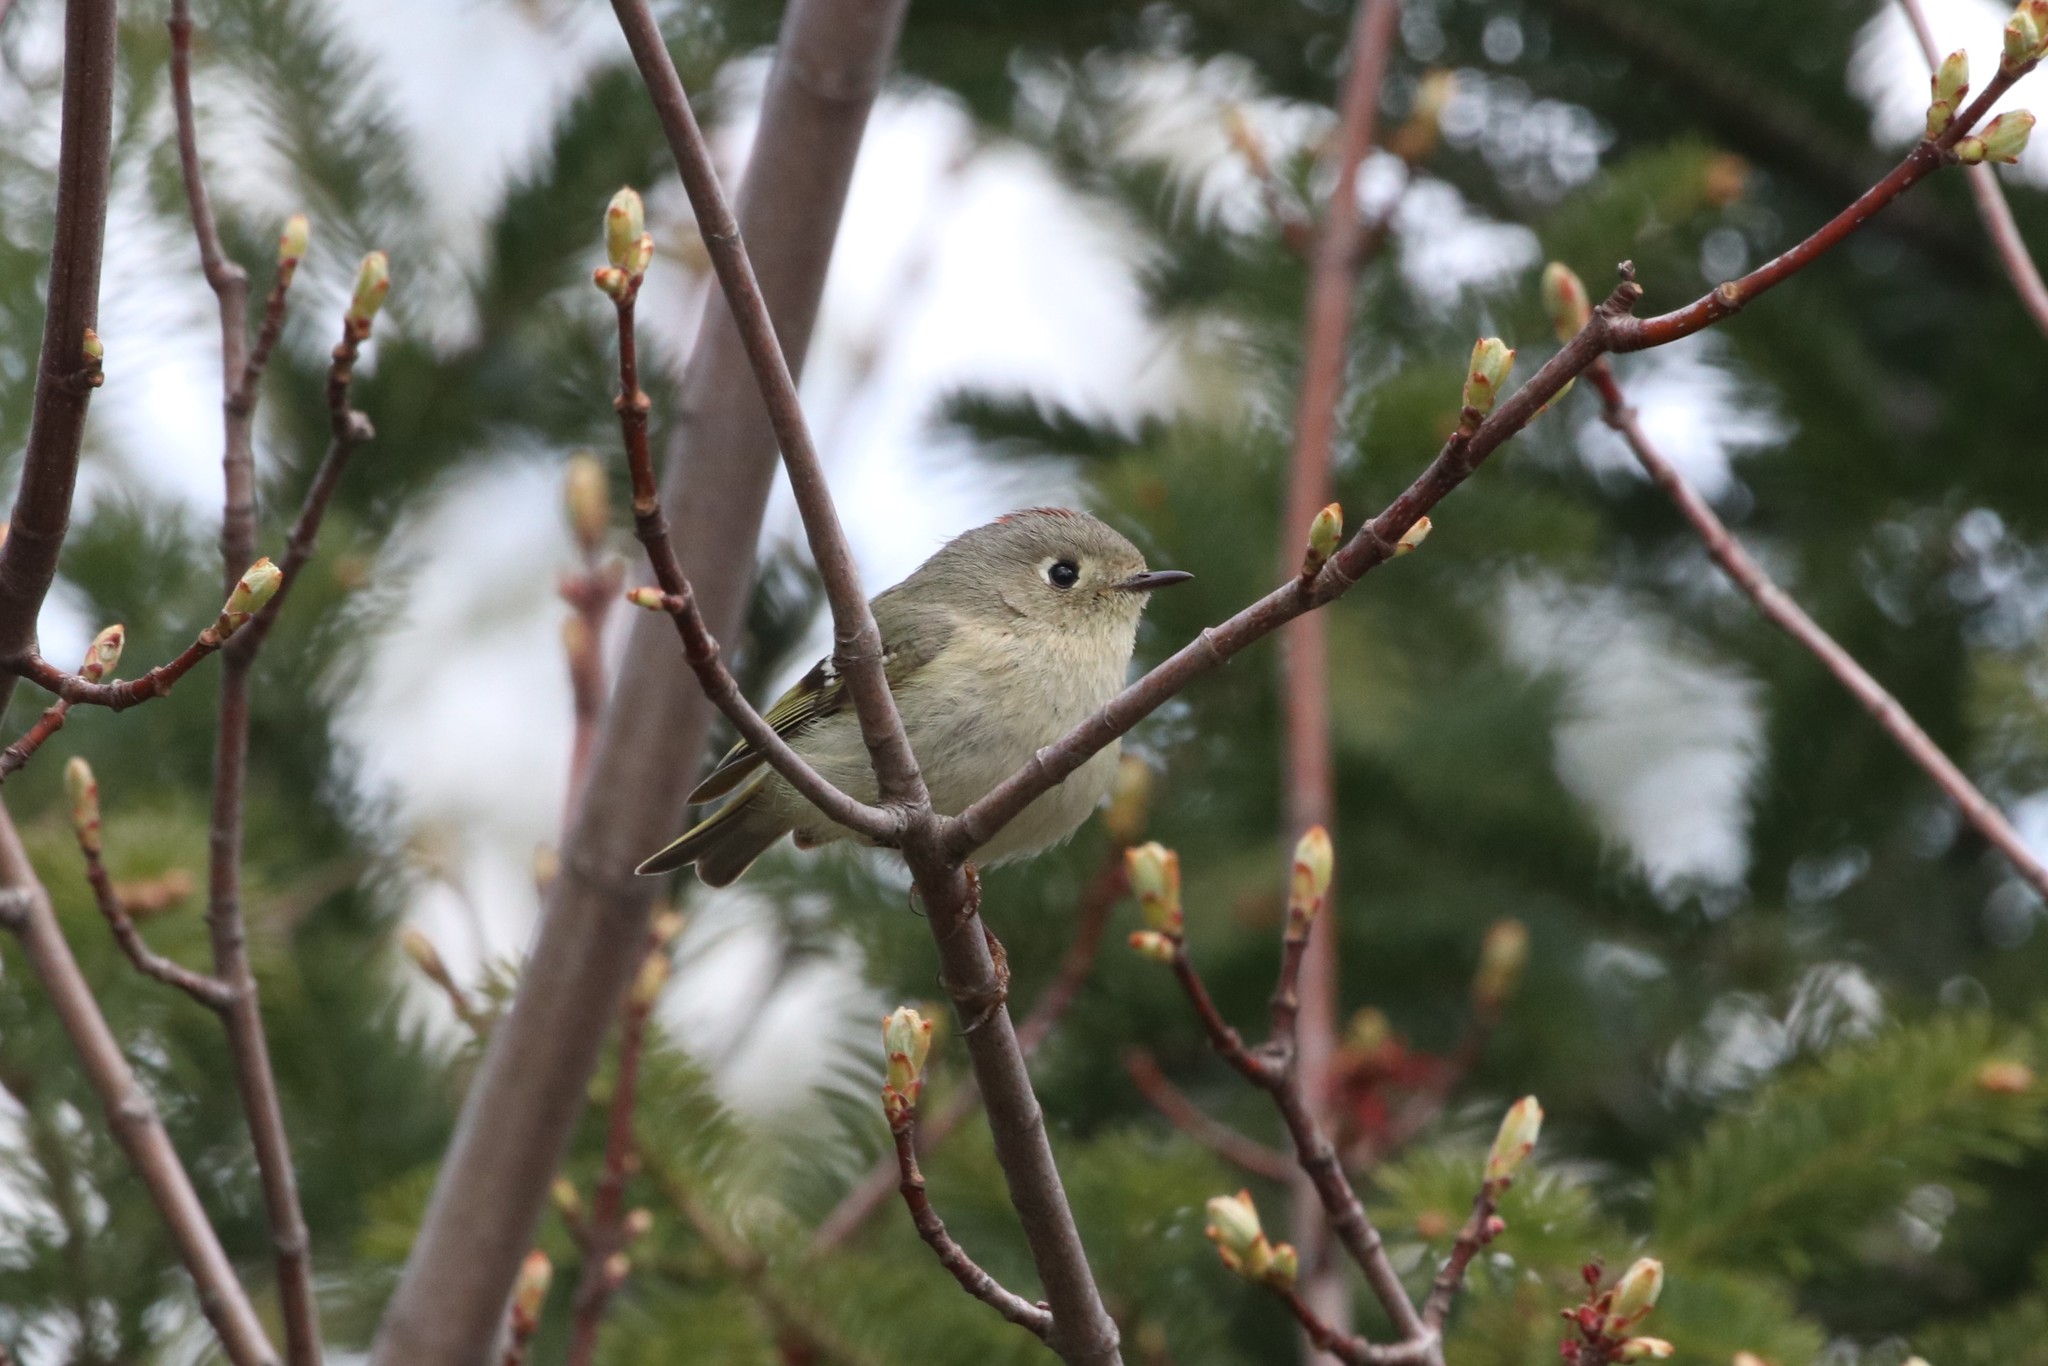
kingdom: Animalia
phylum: Chordata
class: Aves
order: Passeriformes
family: Regulidae
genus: Regulus
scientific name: Regulus calendula
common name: Ruby-crowned kinglet
